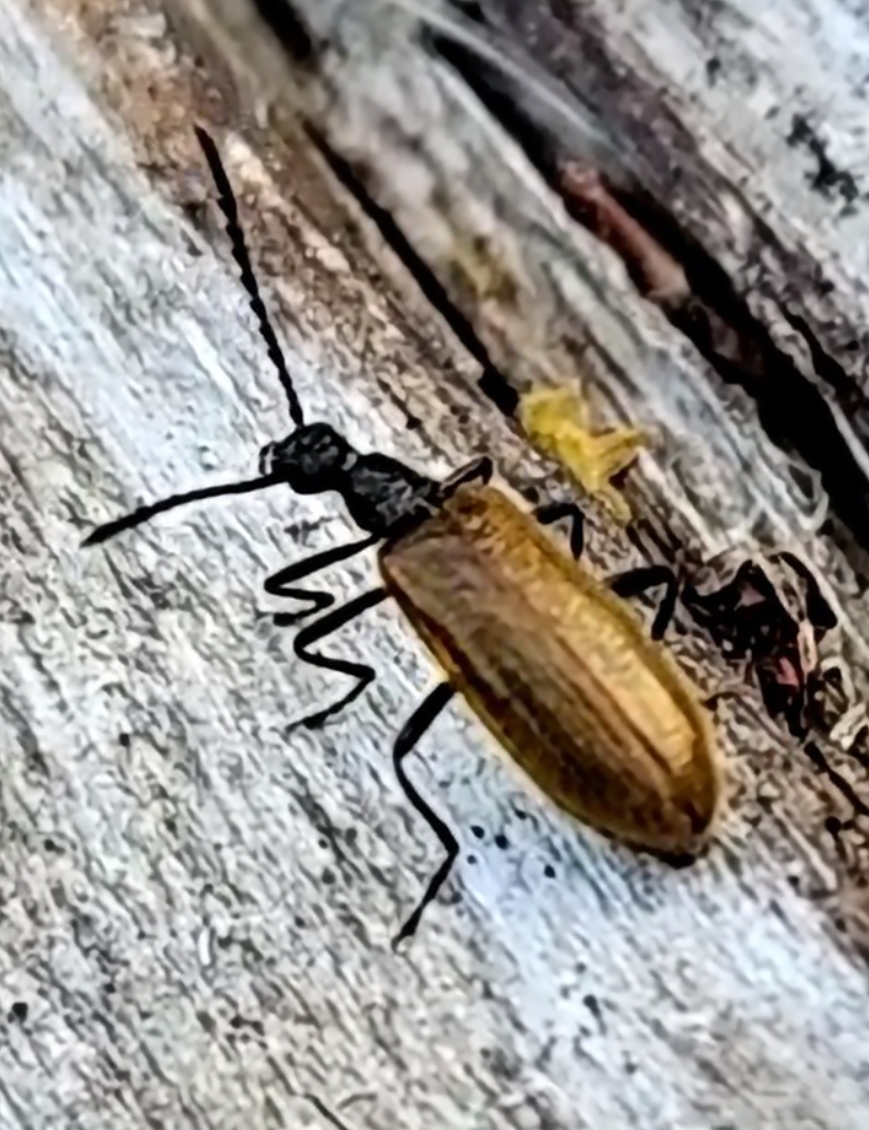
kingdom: Animalia
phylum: Arthropoda
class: Insecta
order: Coleoptera
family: Tenebrionidae
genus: Lagria
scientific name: Lagria hirta
